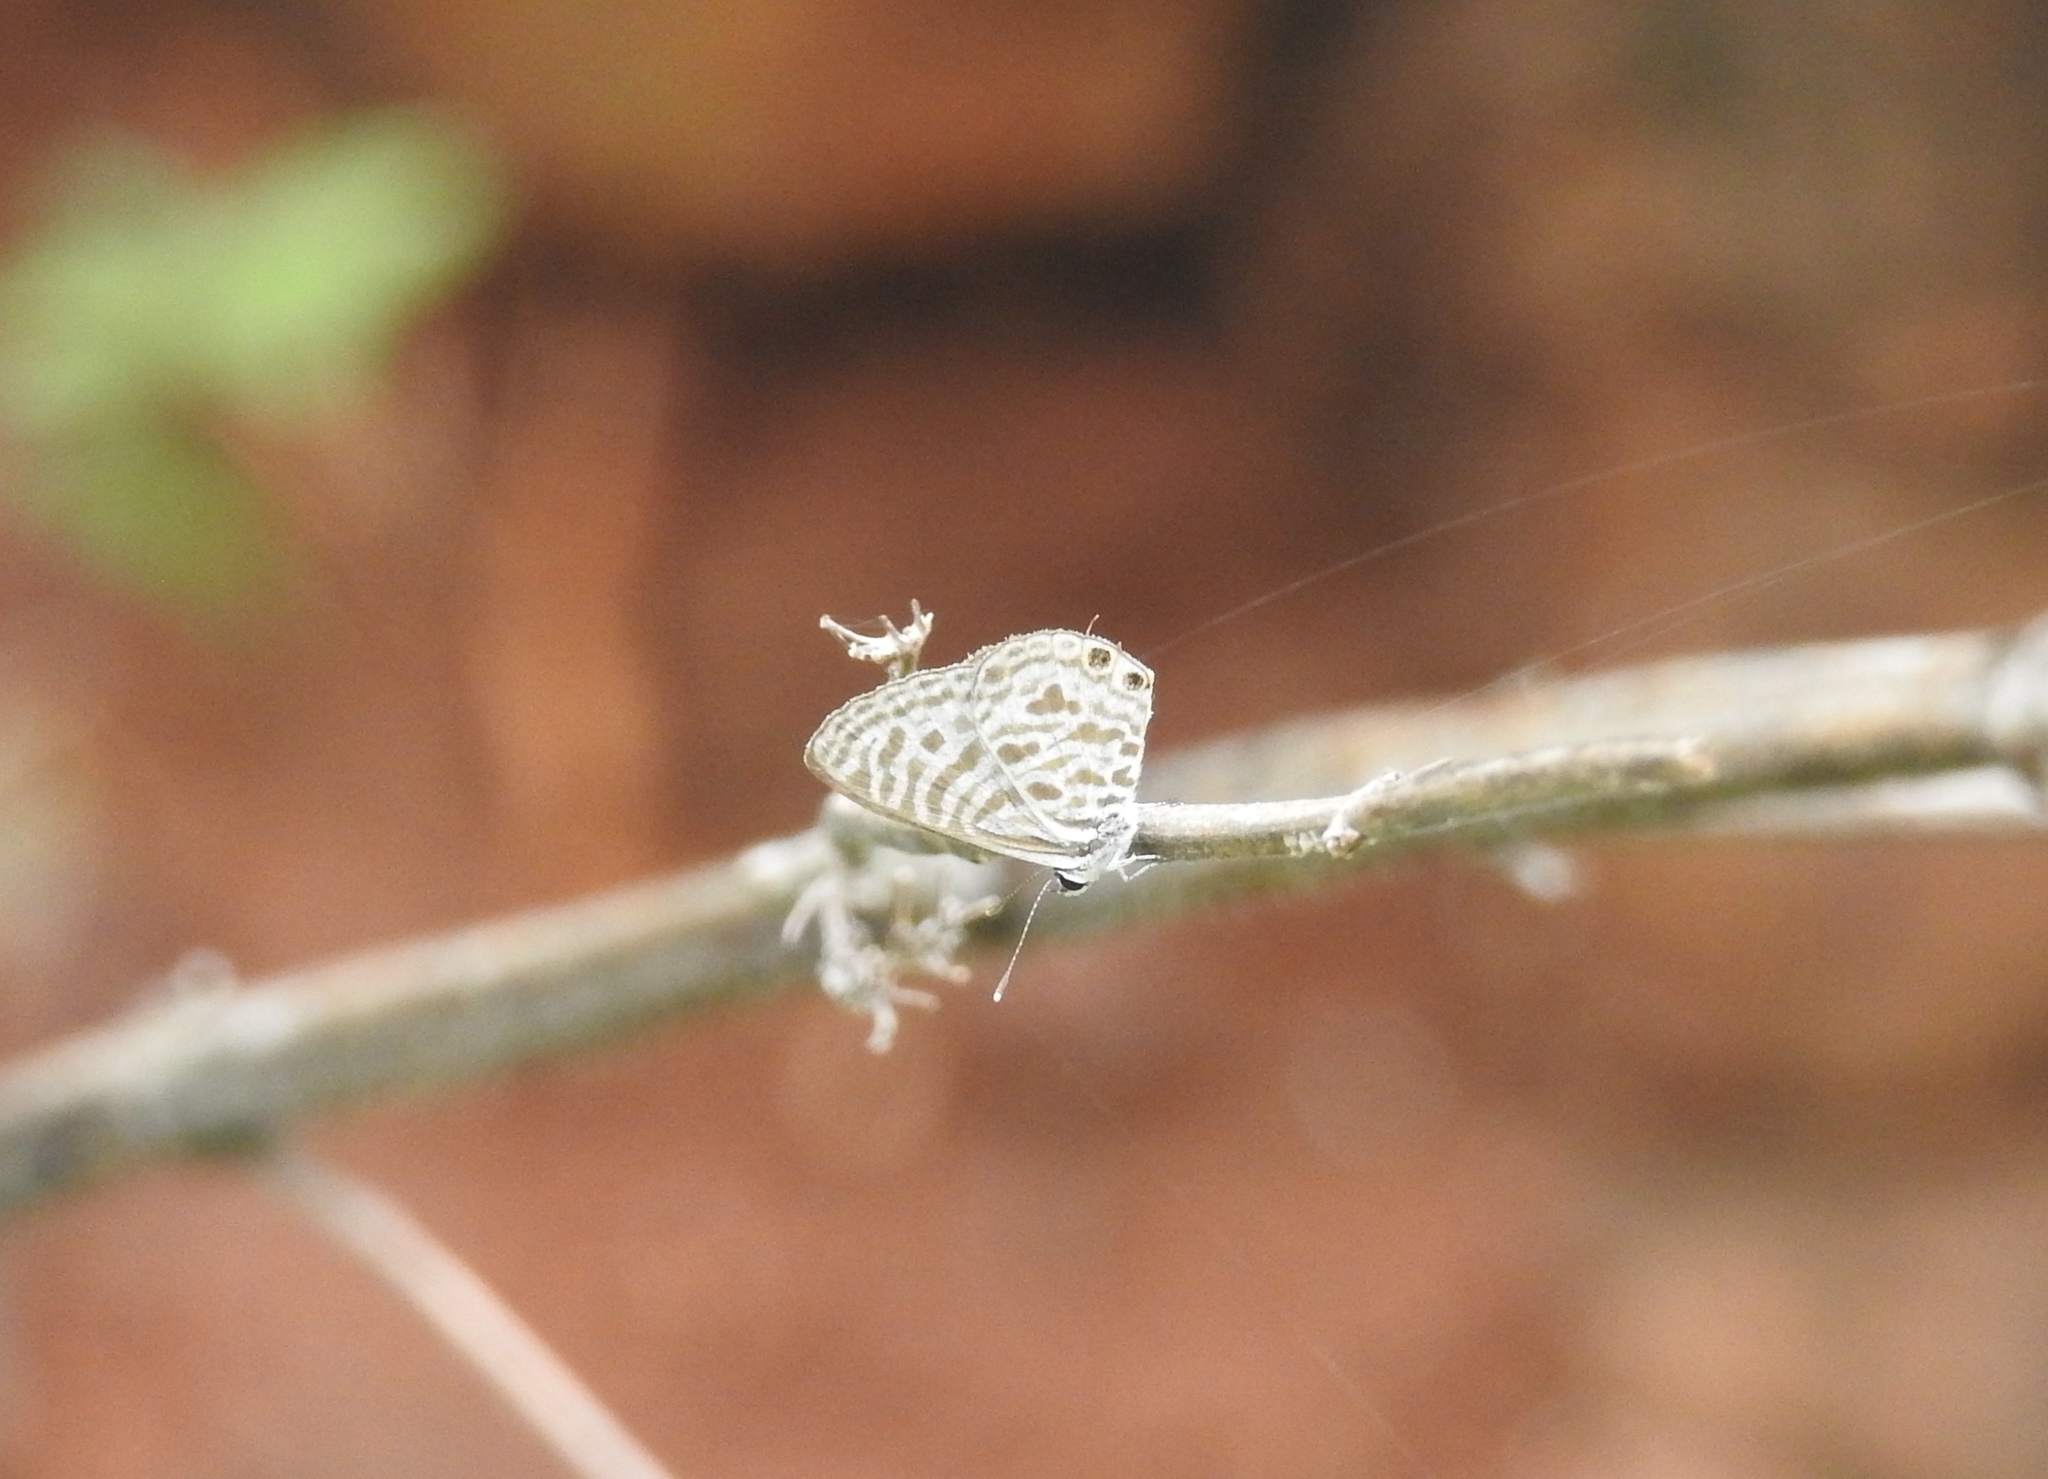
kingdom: Animalia
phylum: Arthropoda
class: Insecta
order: Lepidoptera
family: Lycaenidae
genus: Leptotes
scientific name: Leptotes plinius
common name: Zebra blue
